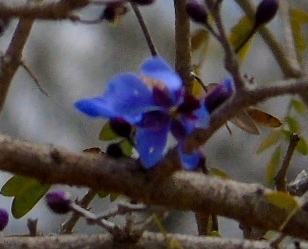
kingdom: Plantae
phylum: Tracheophyta
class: Magnoliopsida
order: Zygophyllales
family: Zygophyllaceae
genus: Guaiacum
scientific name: Guaiacum coulteri
